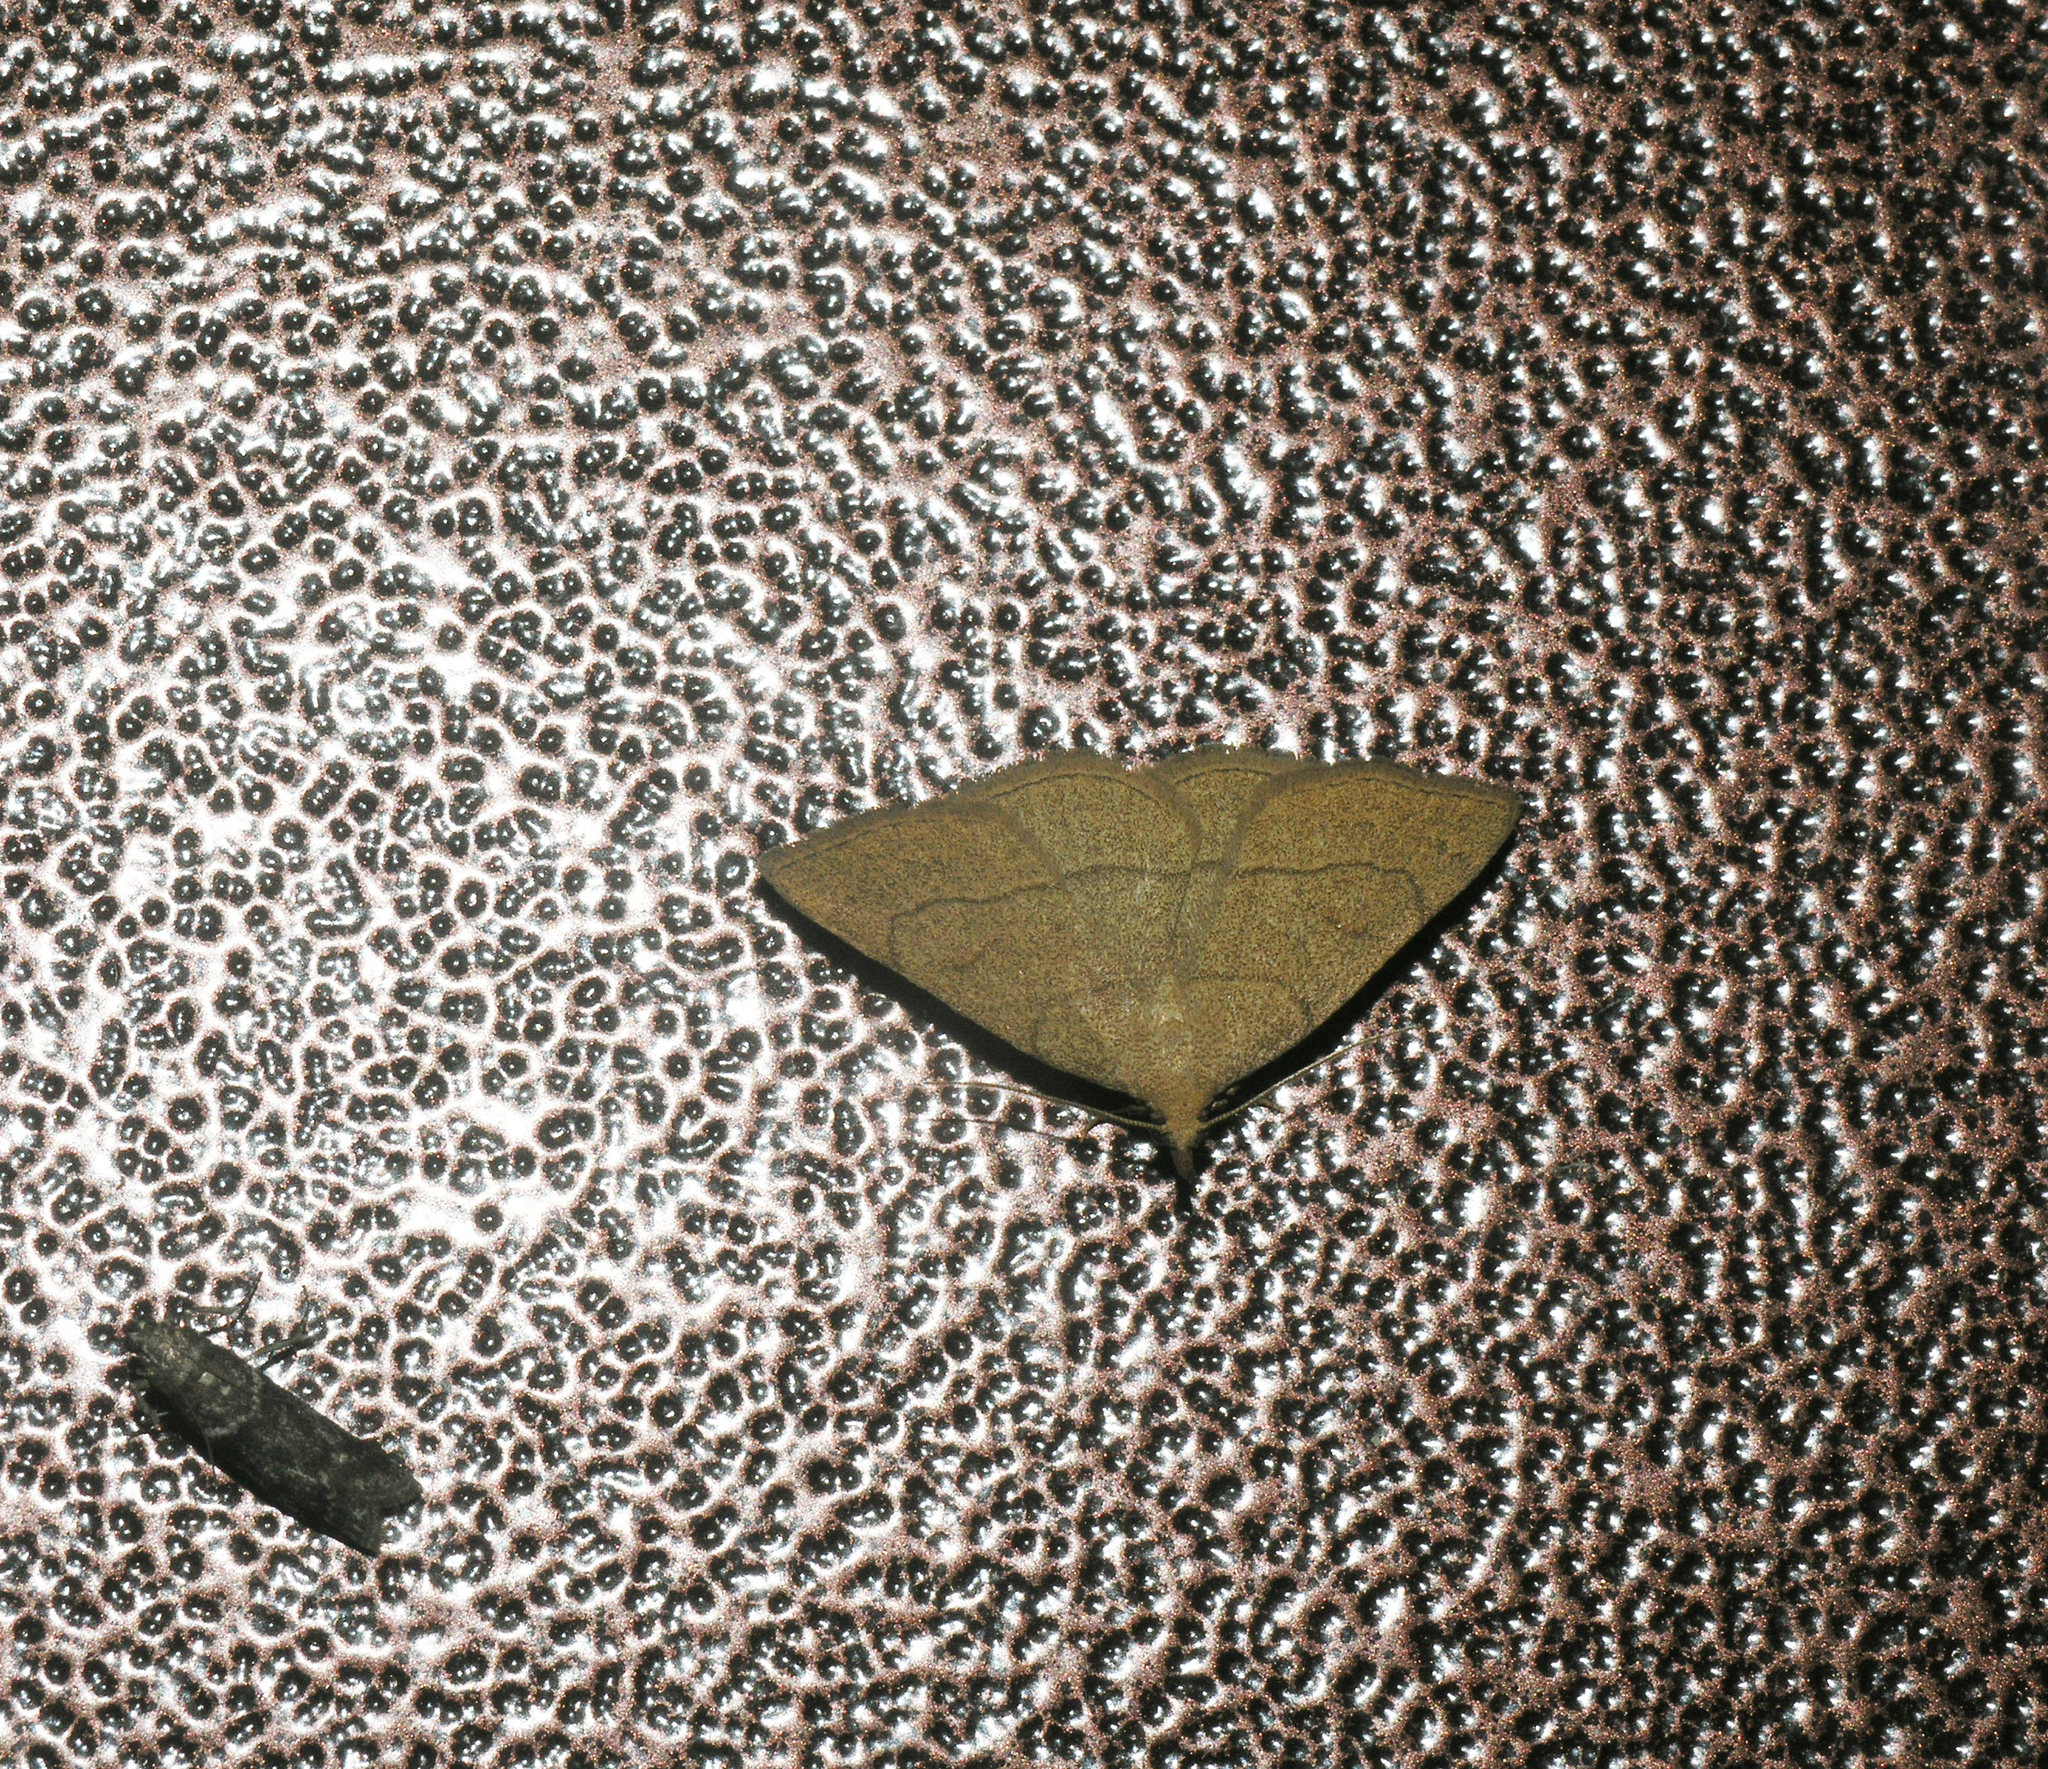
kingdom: Animalia
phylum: Arthropoda
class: Insecta
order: Lepidoptera
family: Erebidae
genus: Paracolax
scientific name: Paracolax tristalis
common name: Clay fan-foot
